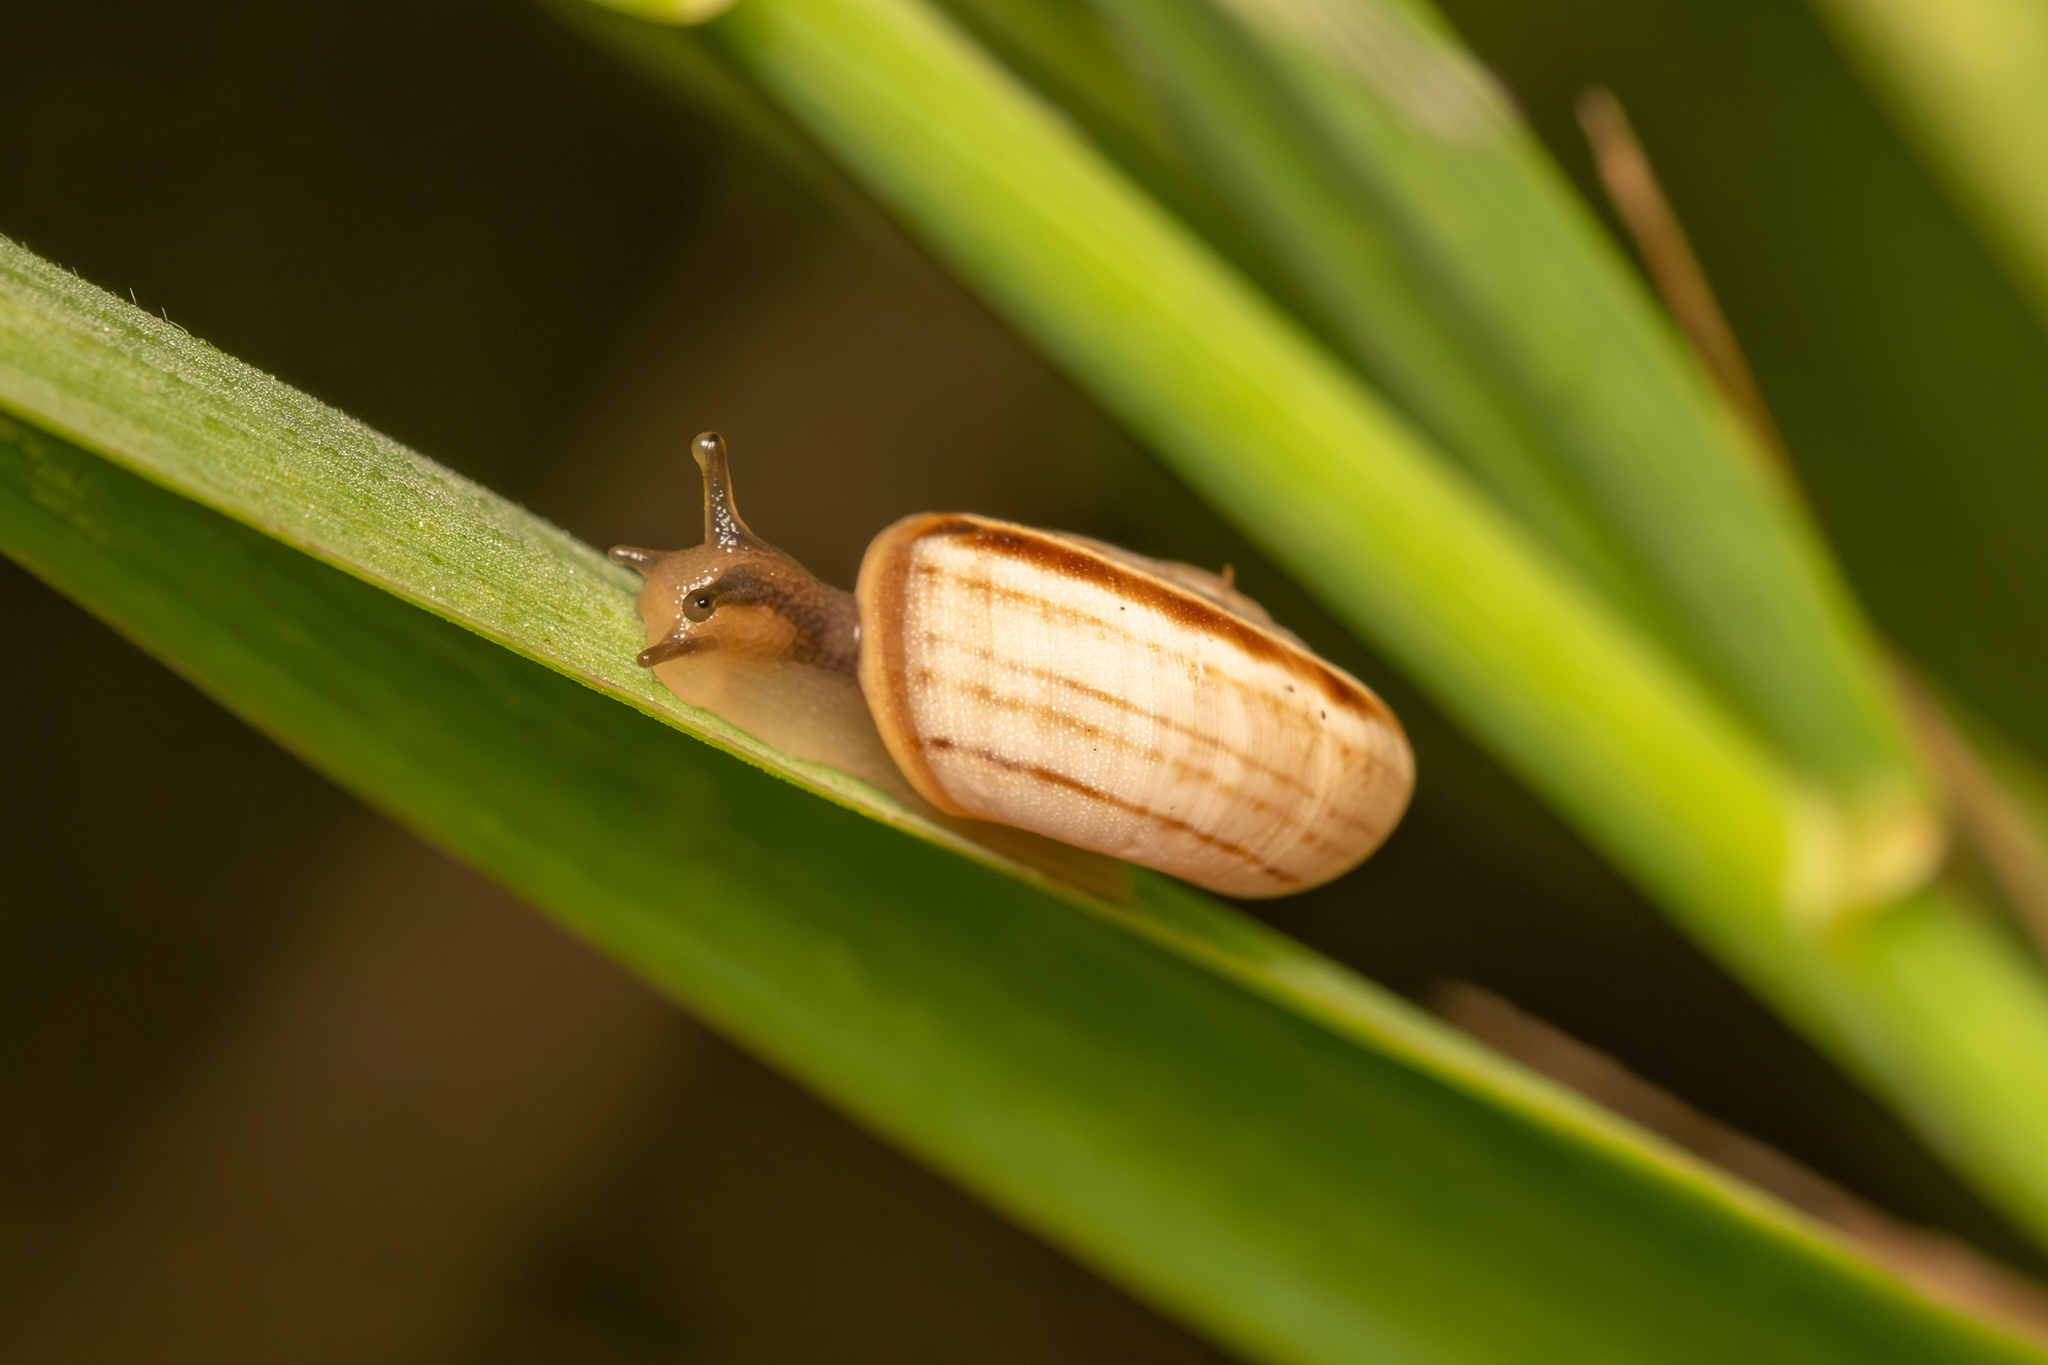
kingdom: Animalia
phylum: Mollusca
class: Gastropoda
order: Stylommatophora
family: Geomitridae
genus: Xerolenta
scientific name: Xerolenta obvia
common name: White heath snail
